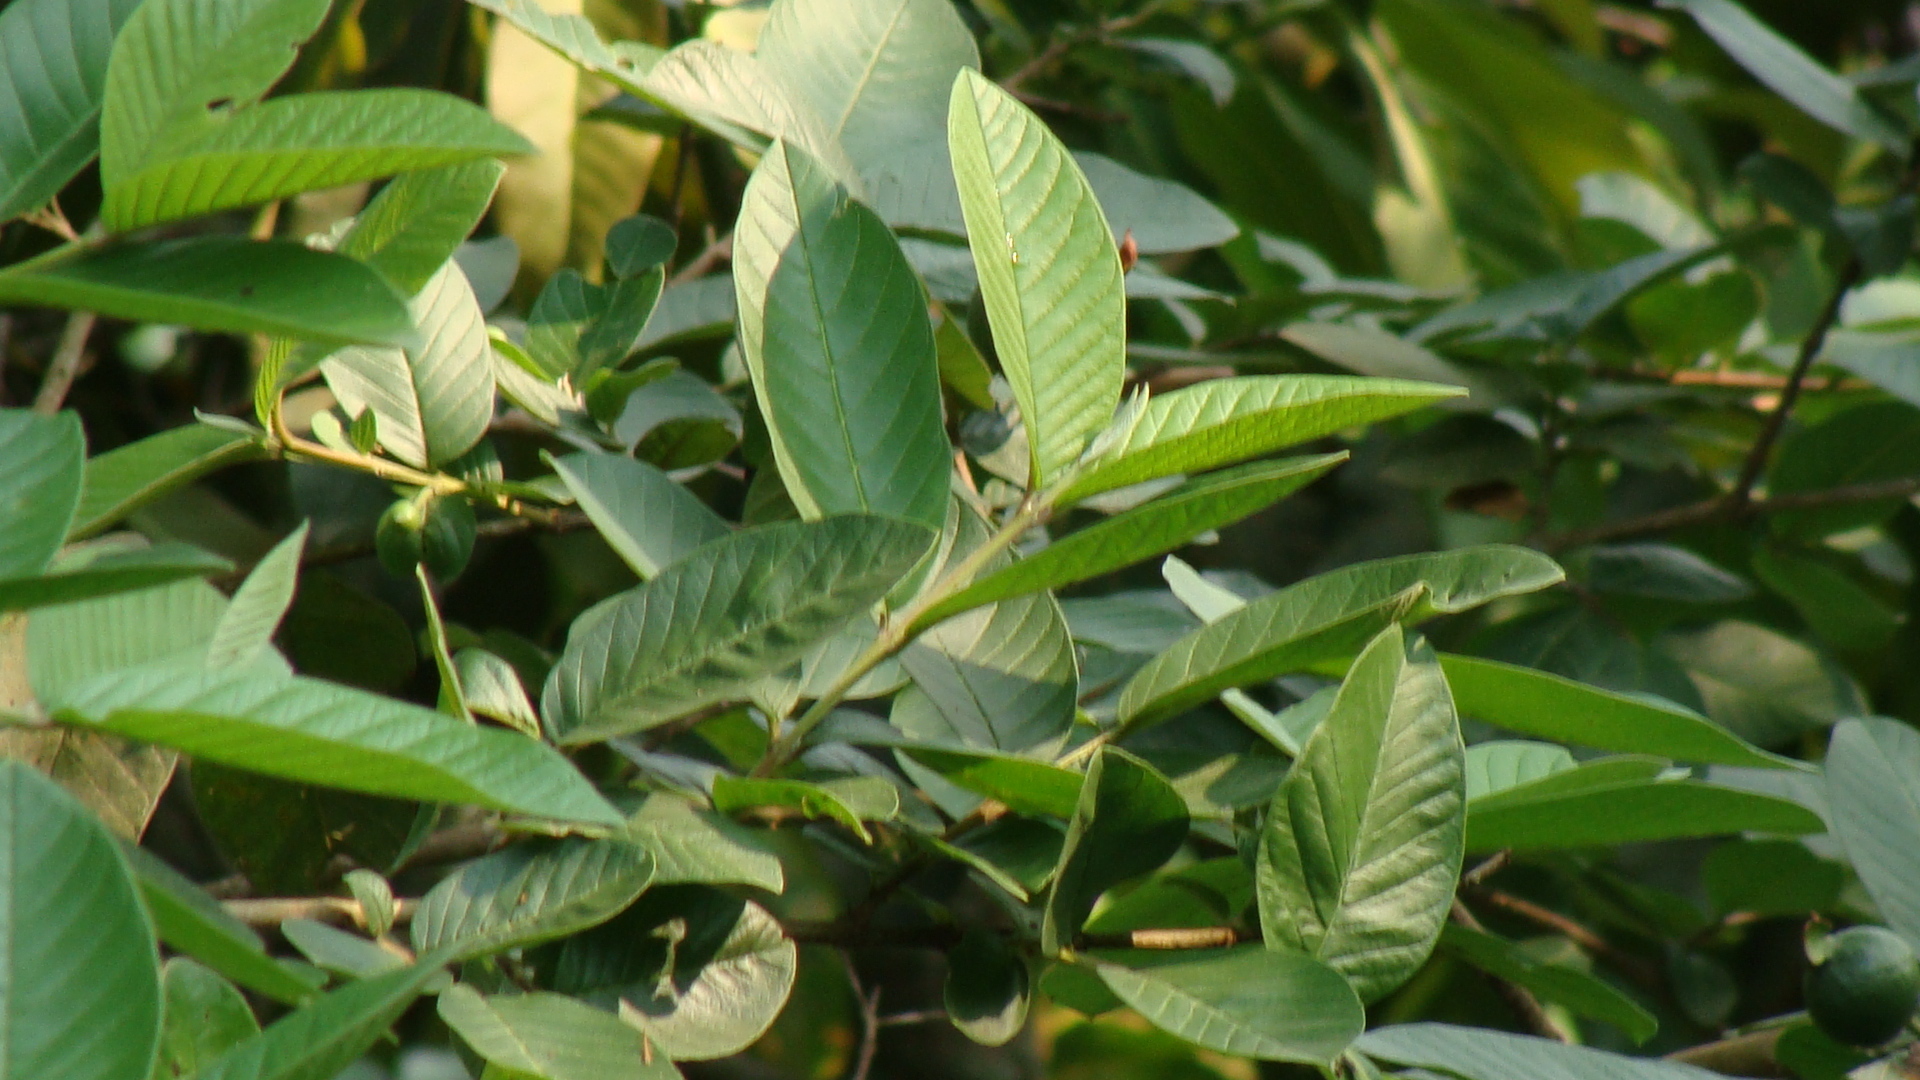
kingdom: Plantae
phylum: Tracheophyta
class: Magnoliopsida
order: Myrtales
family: Myrtaceae
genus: Psidium
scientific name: Psidium guajava
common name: Guava
